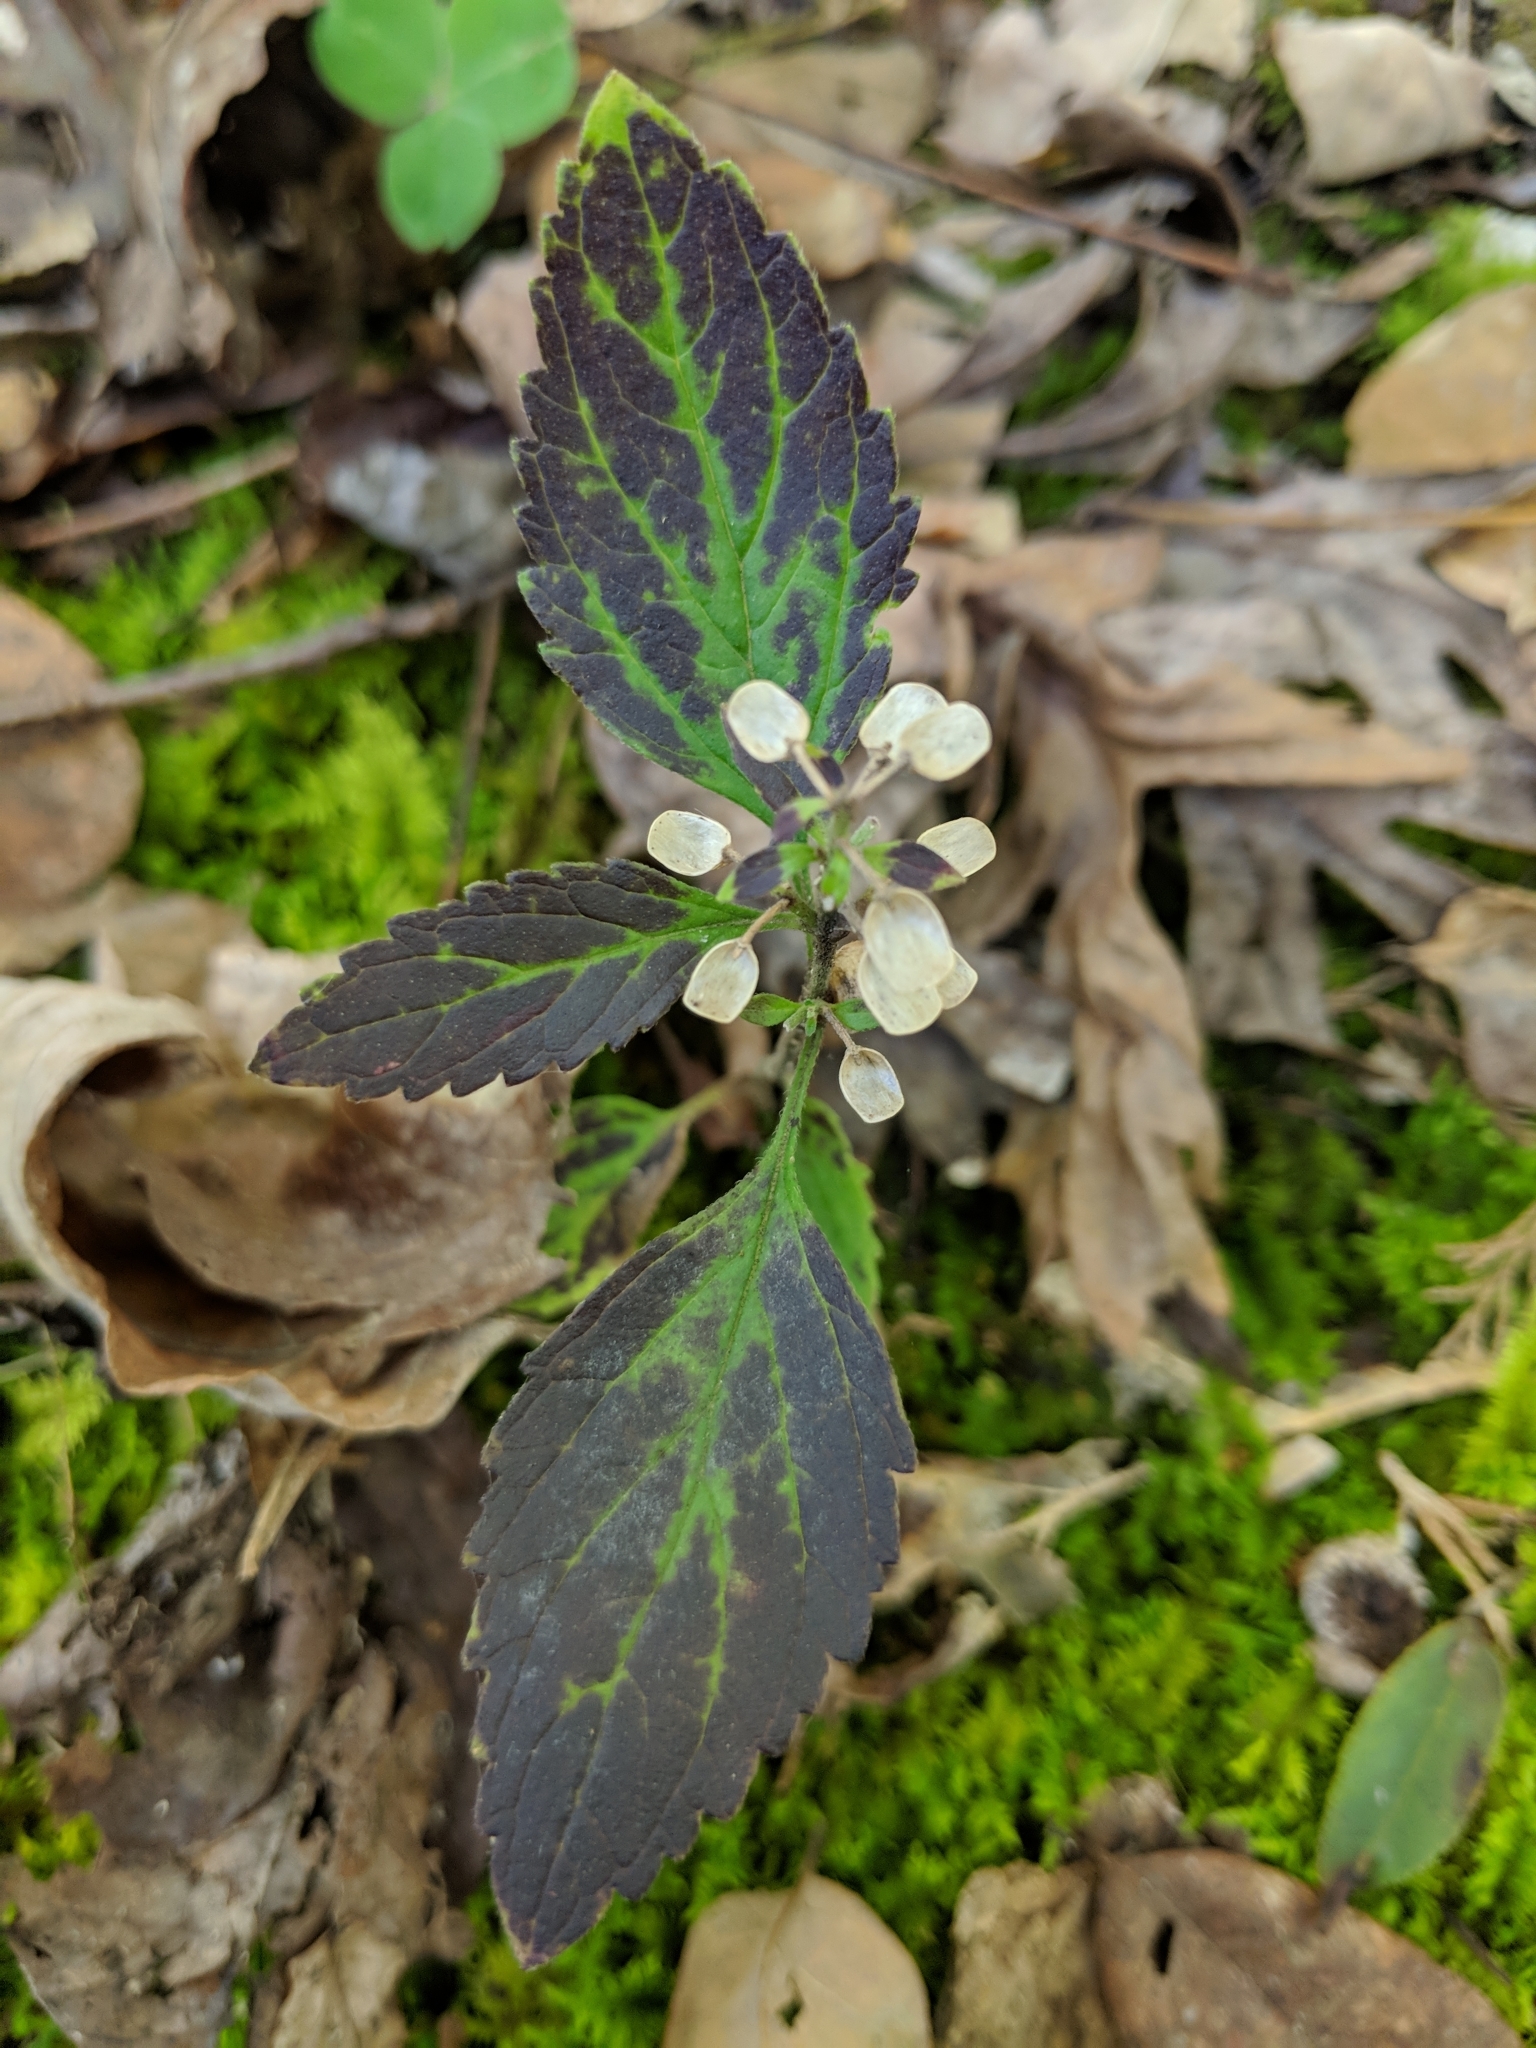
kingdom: Plantae
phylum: Tracheophyta
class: Magnoliopsida
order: Lamiales
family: Lamiaceae
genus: Scutellaria
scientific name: Scutellaria elliptica
